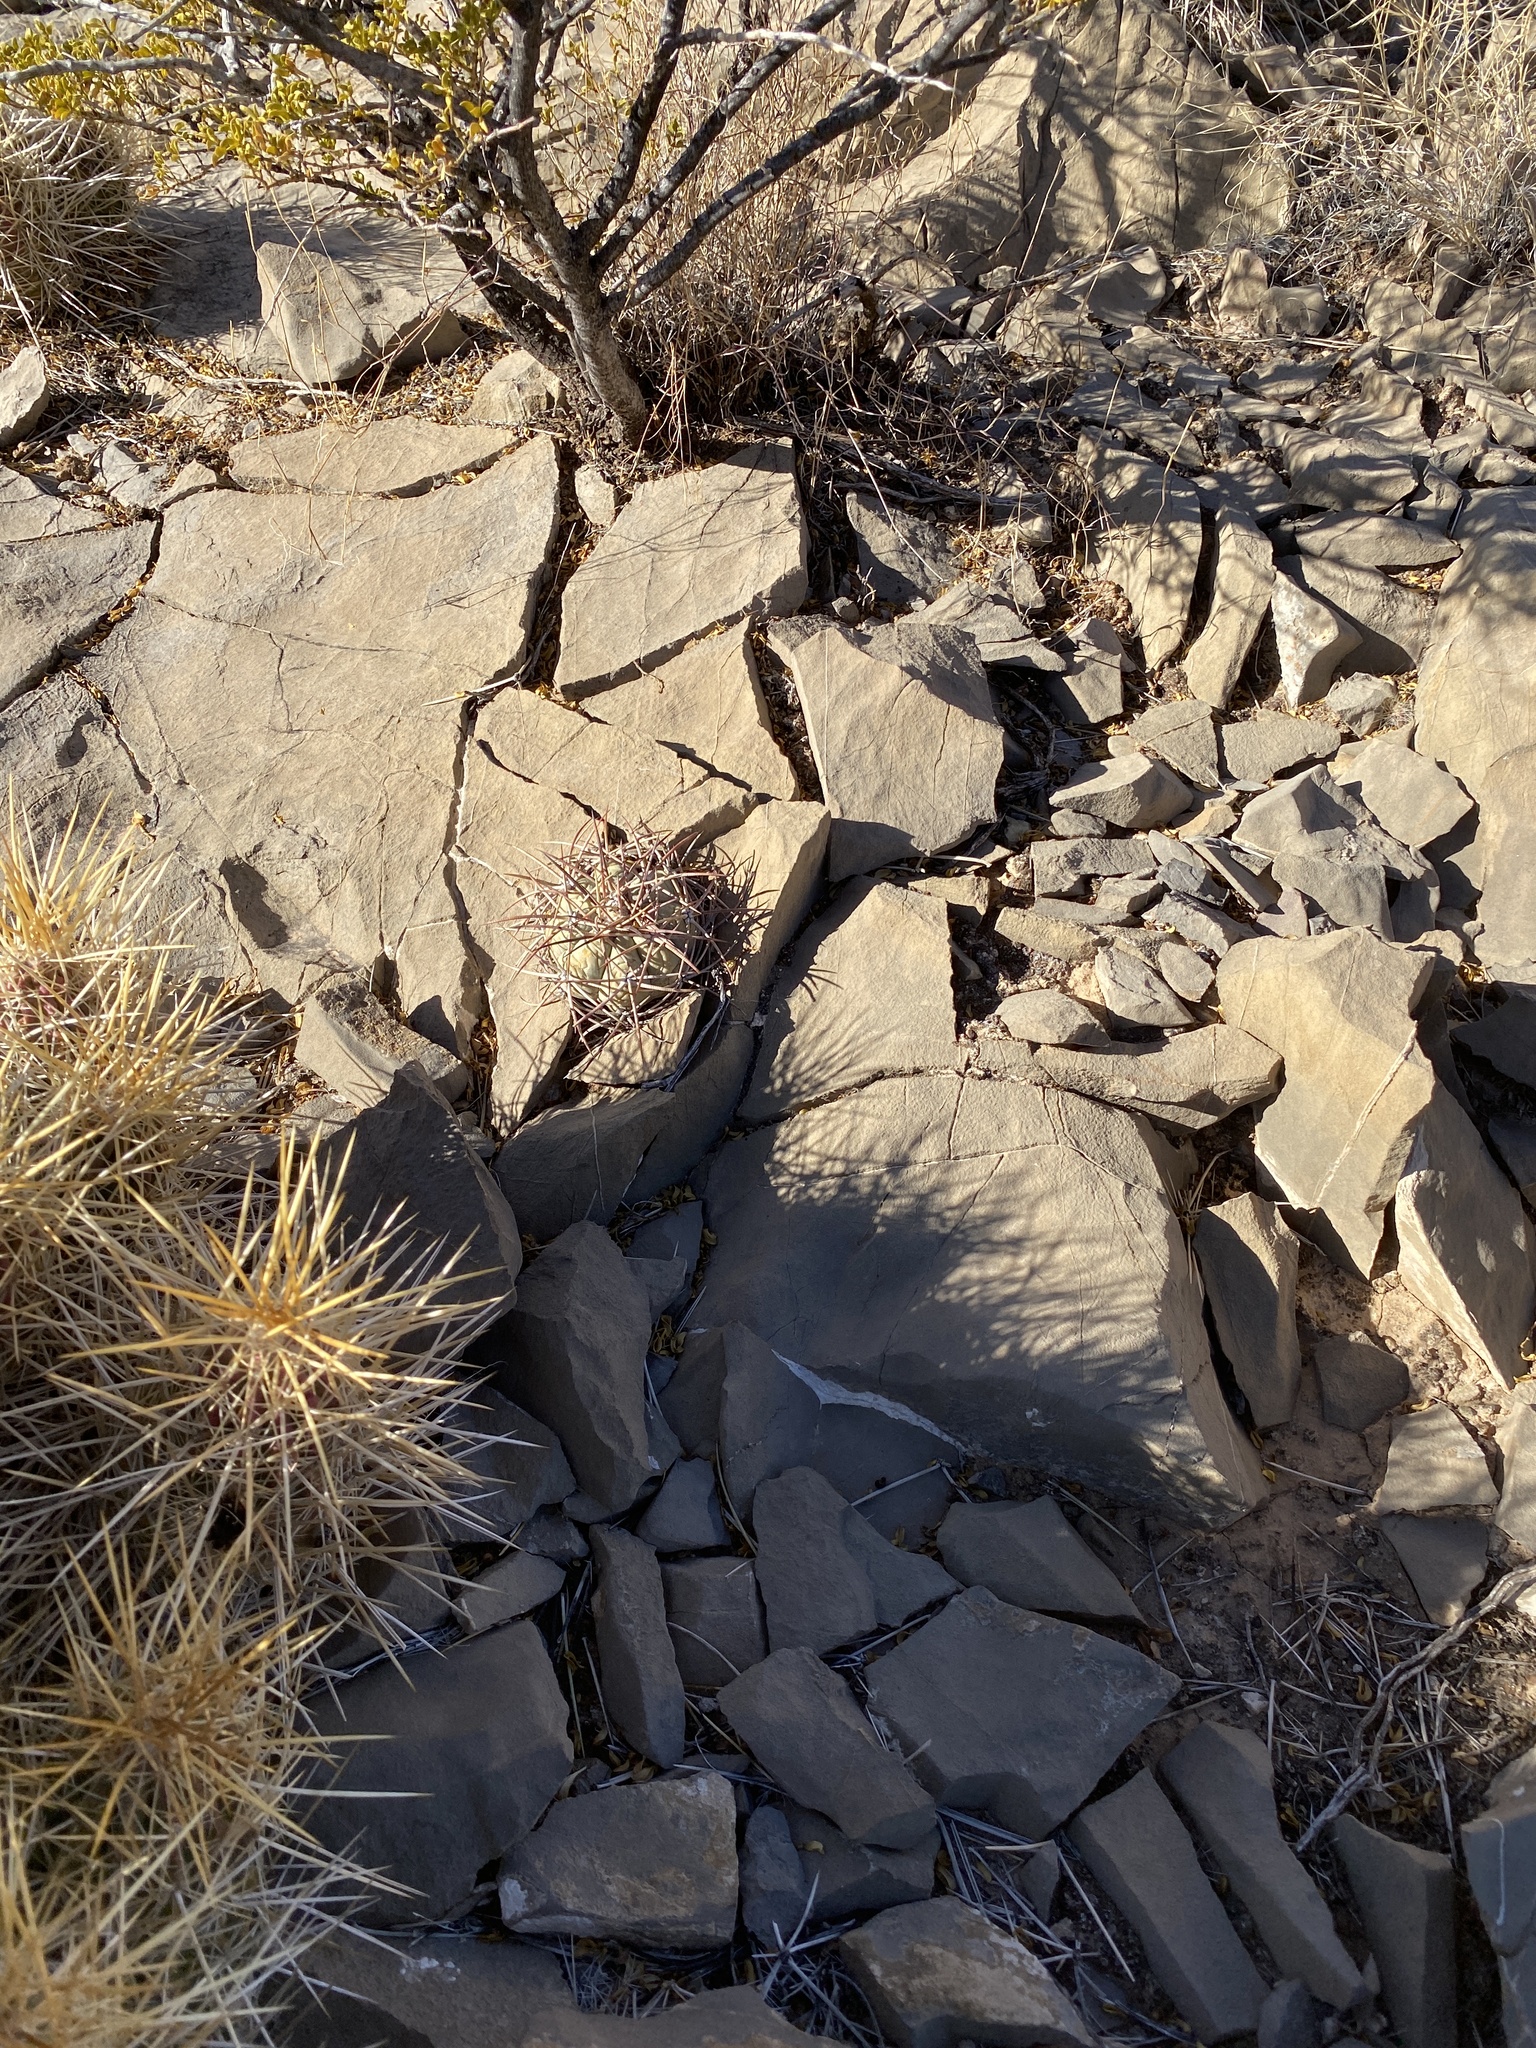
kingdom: Plantae
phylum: Tracheophyta
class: Magnoliopsida
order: Caryophyllales
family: Cactaceae
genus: Echinocactus
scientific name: Echinocactus horizonthalonius
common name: Devilshead
